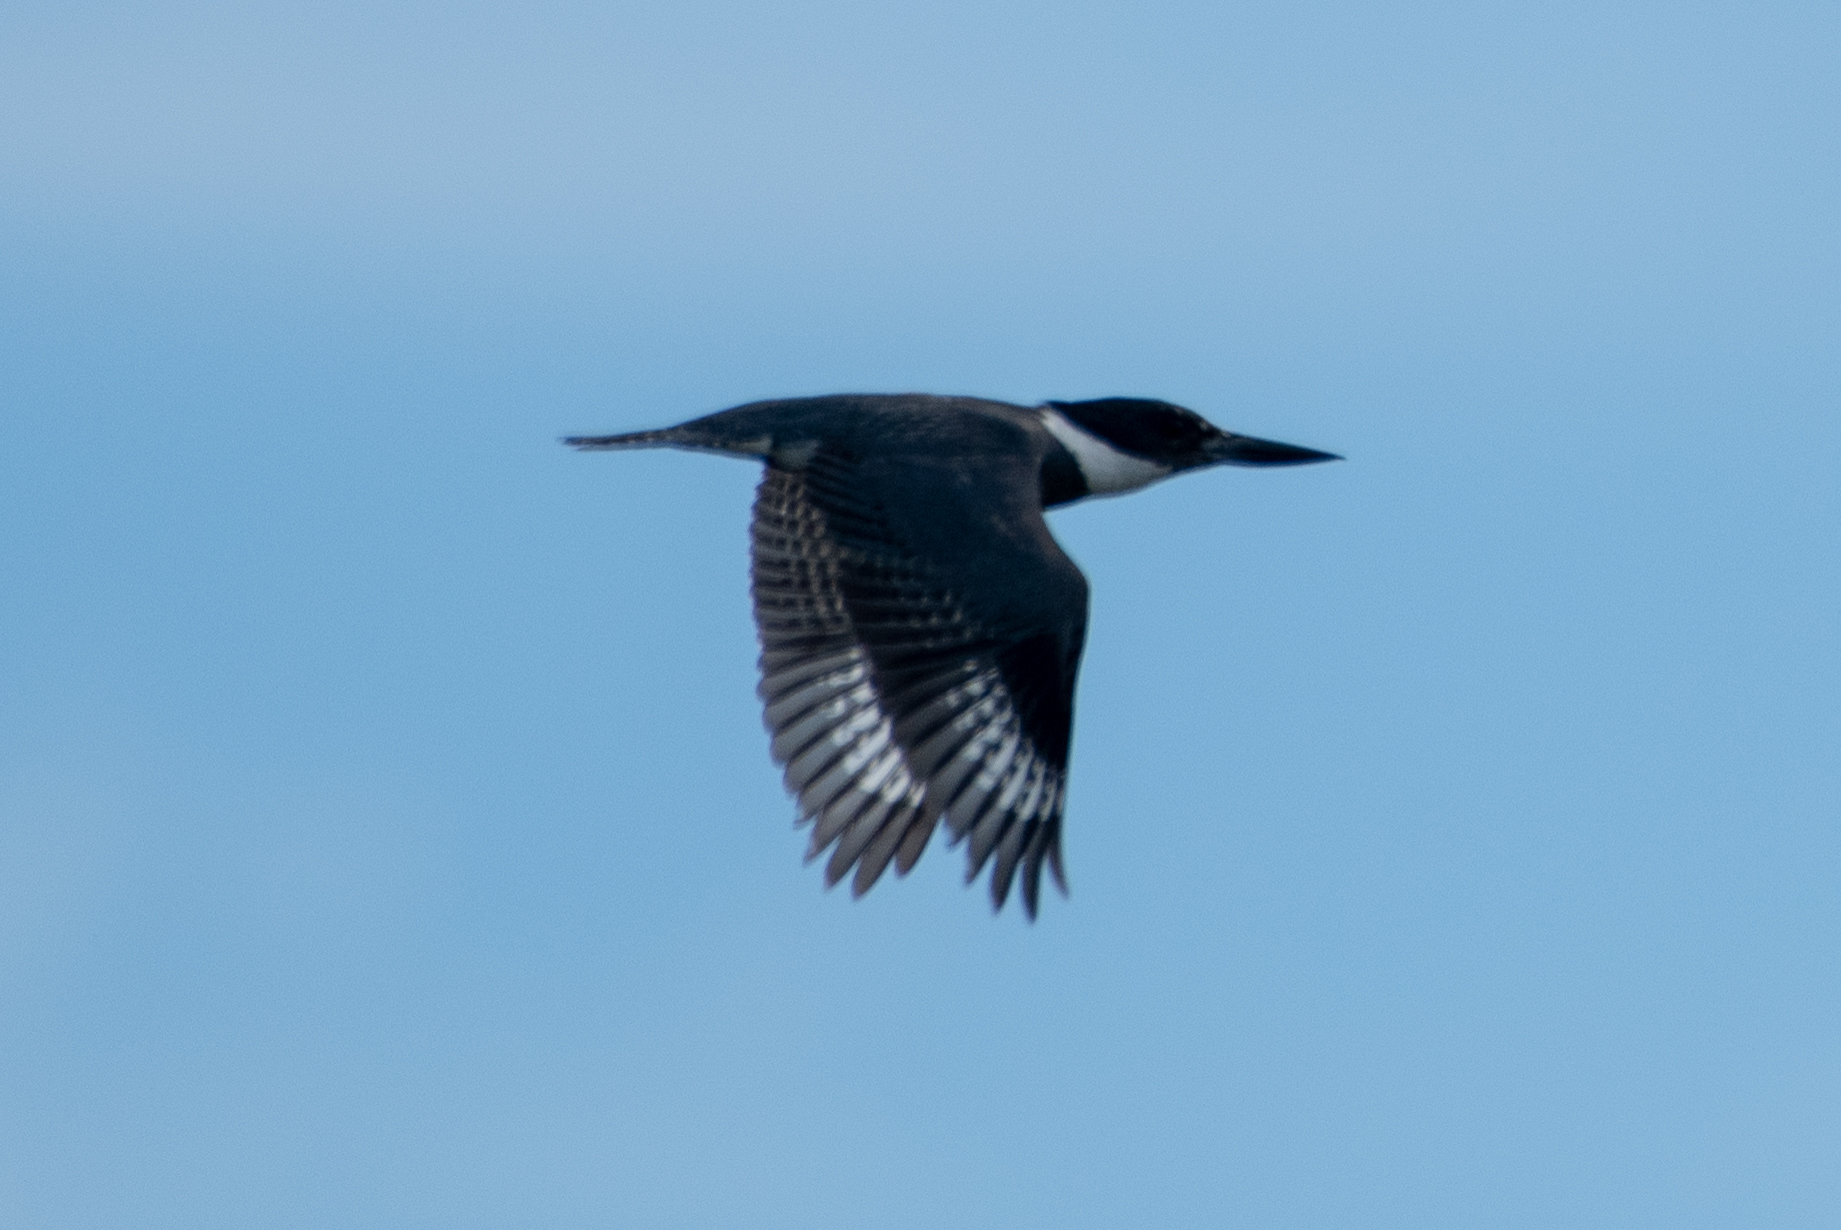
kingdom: Animalia
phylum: Chordata
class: Aves
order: Coraciiformes
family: Alcedinidae
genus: Megaceryle
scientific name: Megaceryle alcyon
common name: Belted kingfisher
